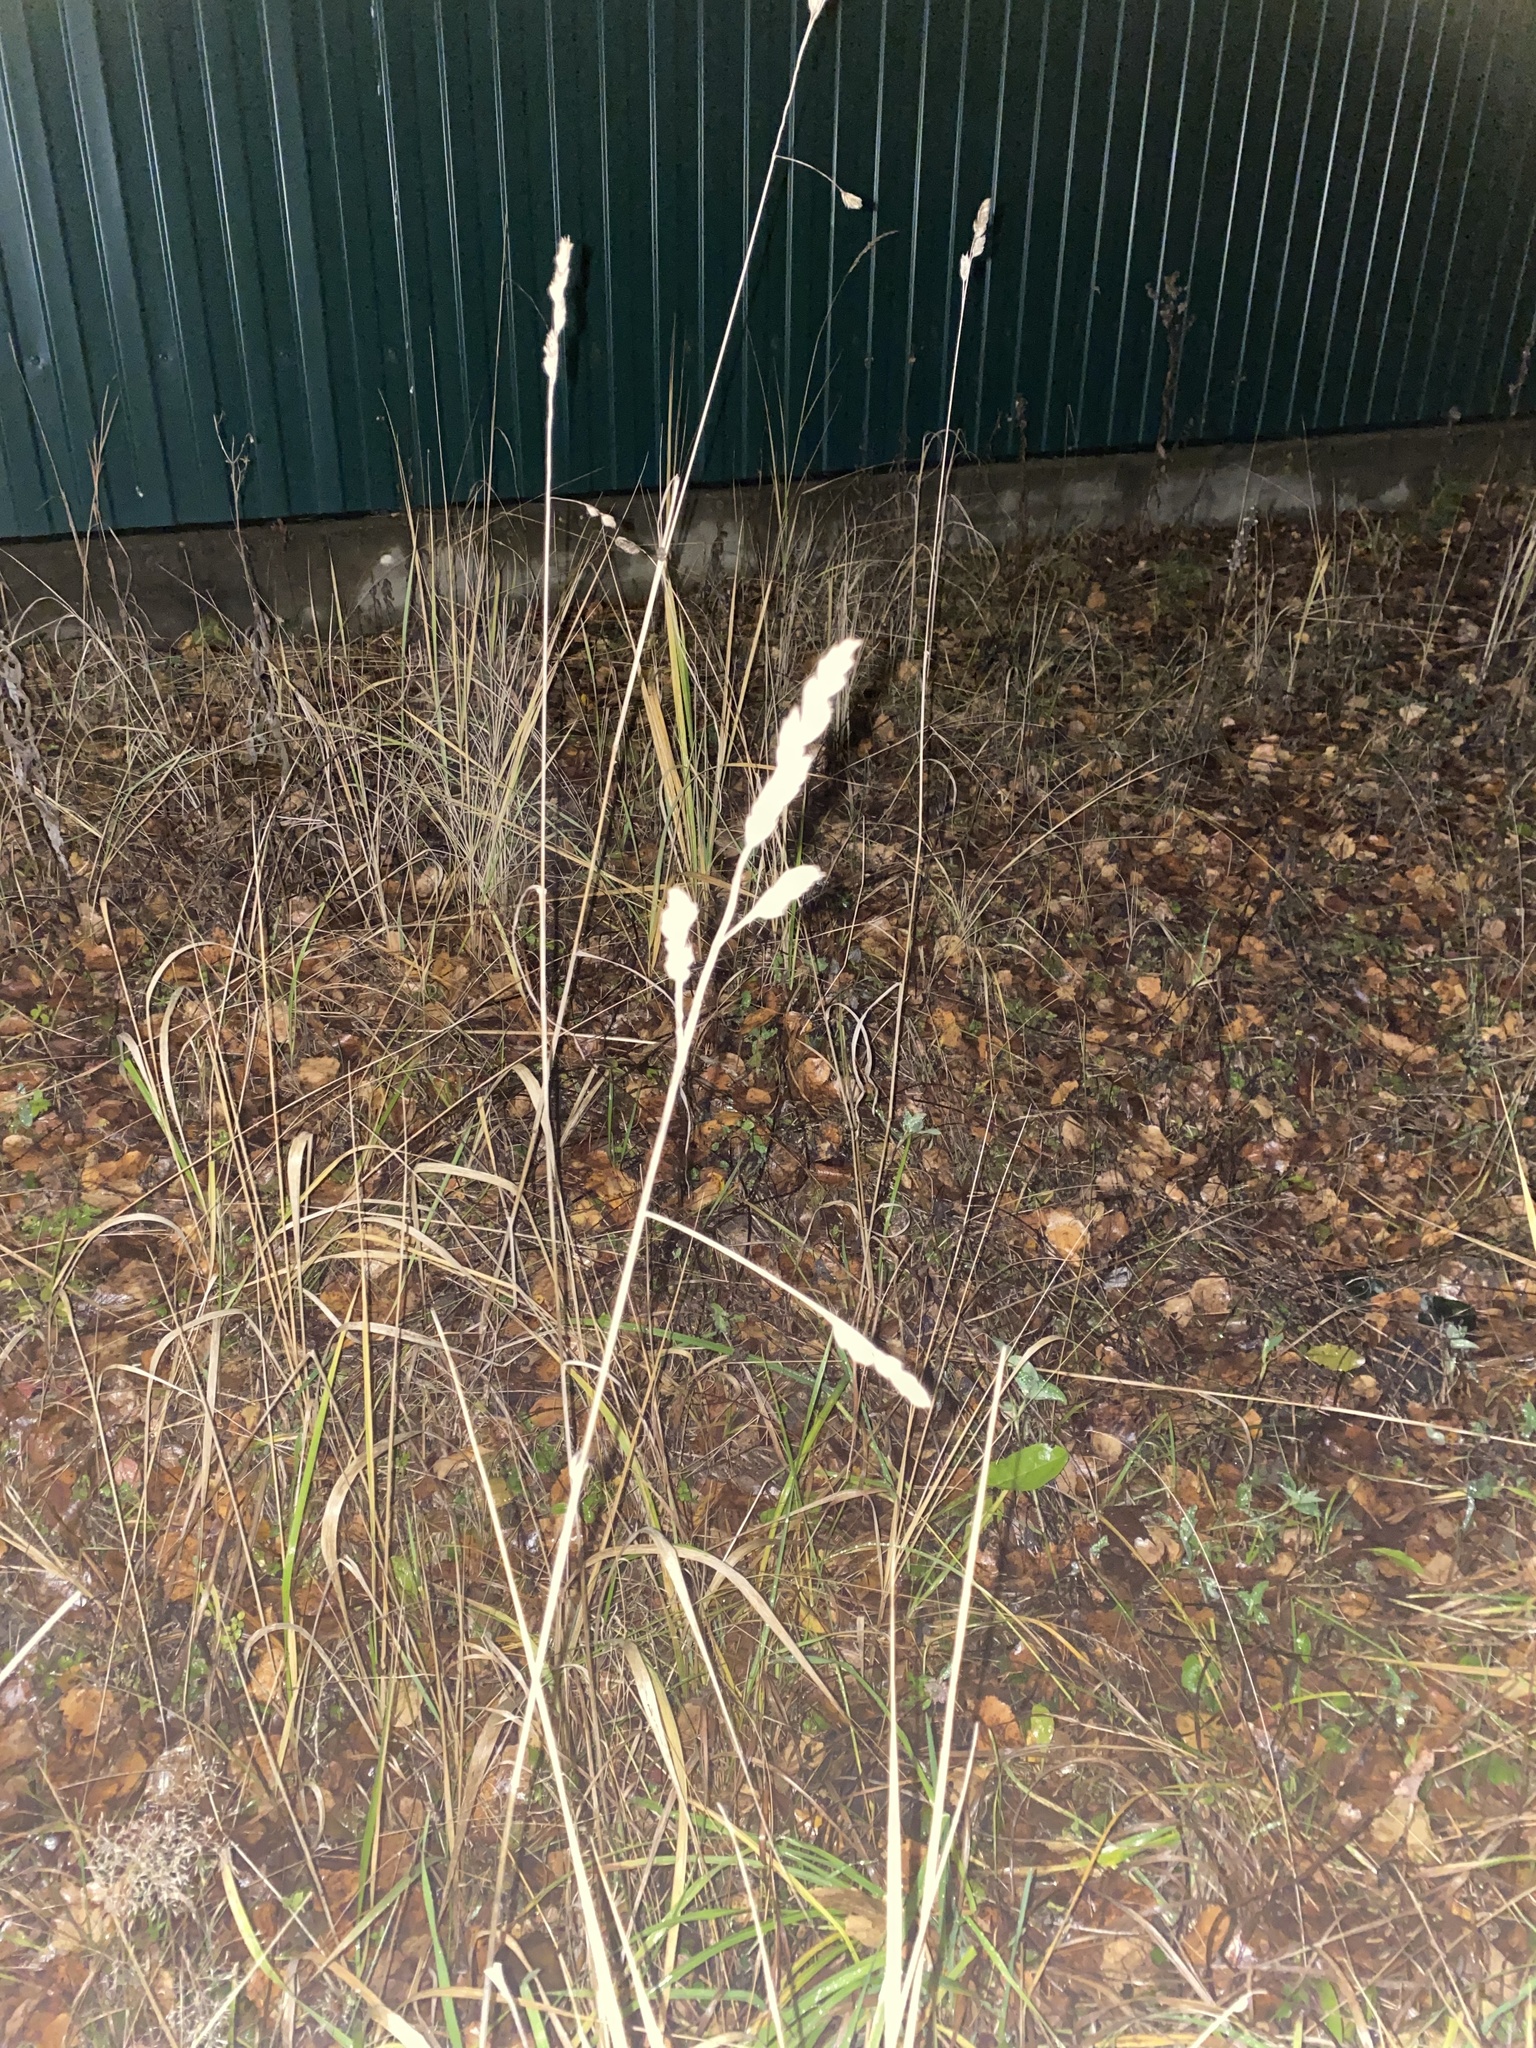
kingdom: Plantae
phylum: Tracheophyta
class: Liliopsida
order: Poales
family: Poaceae
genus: Dactylis
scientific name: Dactylis glomerata
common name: Orchardgrass
